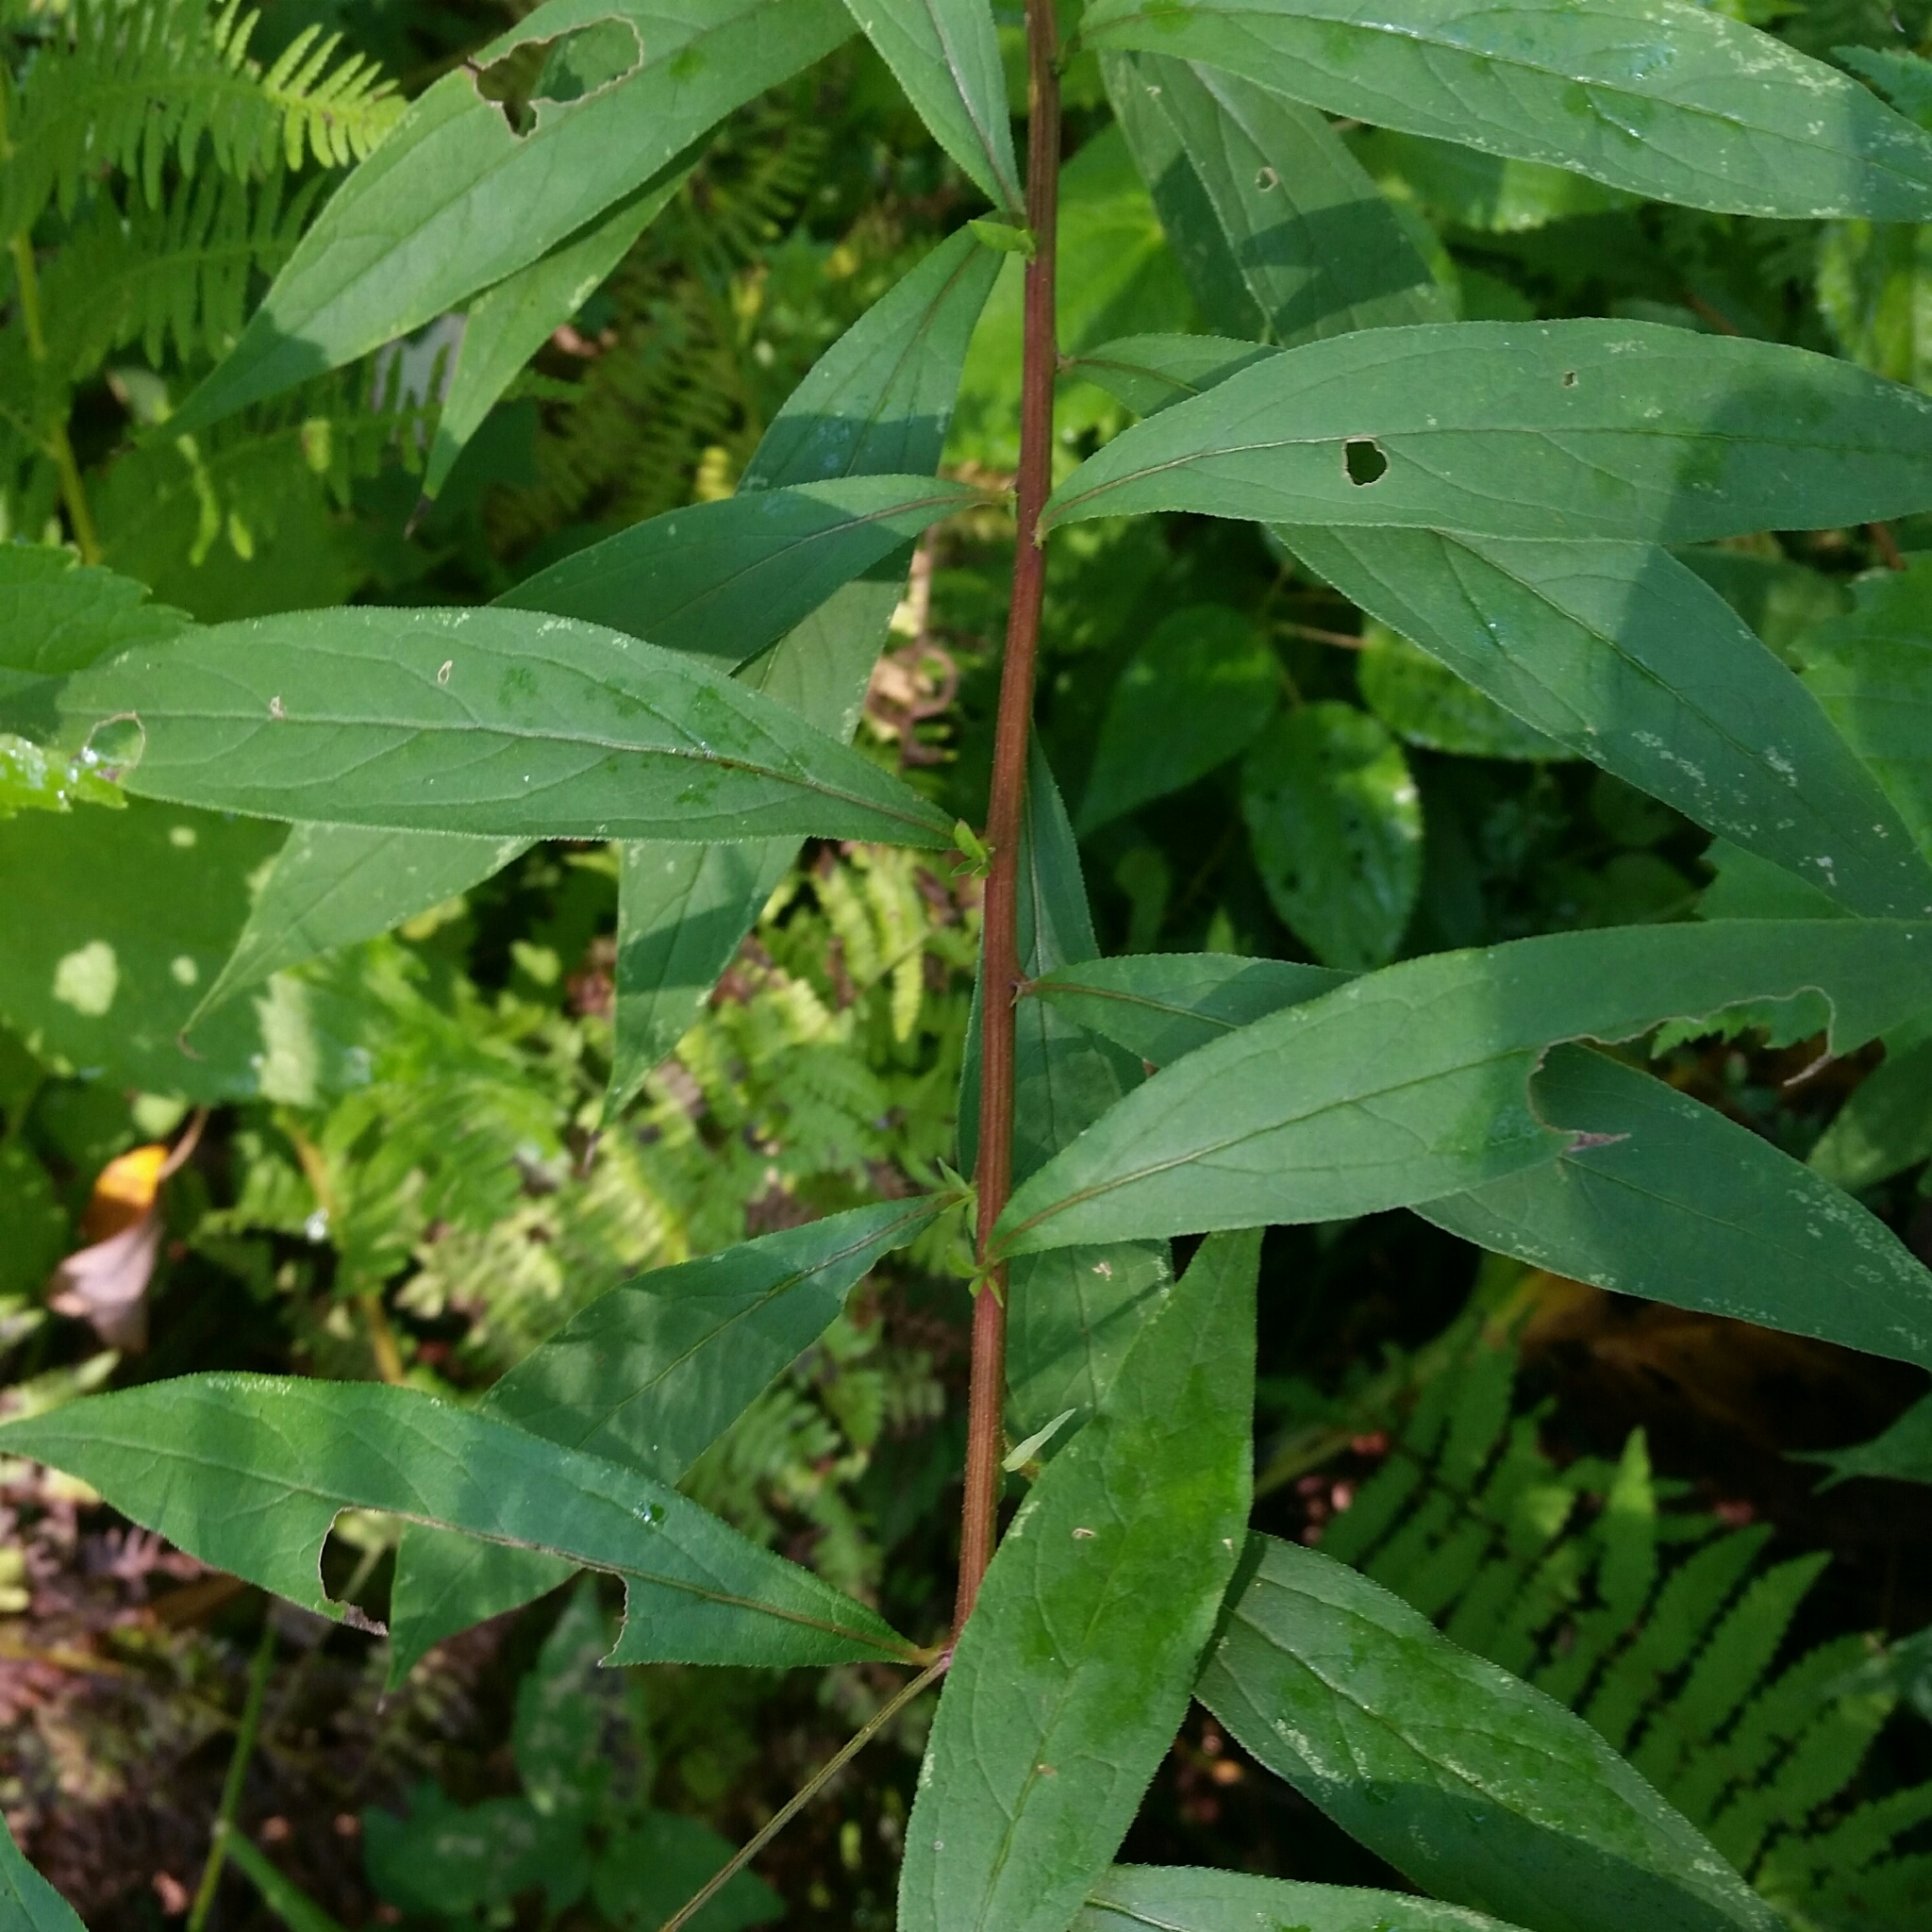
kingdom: Plantae
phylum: Tracheophyta
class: Magnoliopsida
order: Asterales
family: Asteraceae
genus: Doellingeria
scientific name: Doellingeria umbellata
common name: Flat-top white aster
